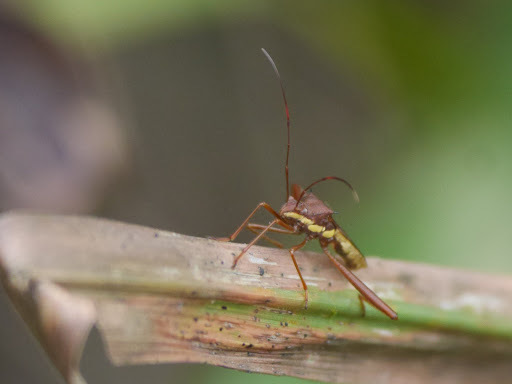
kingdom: Animalia
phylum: Arthropoda
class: Insecta
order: Hemiptera
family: Alydidae
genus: Riptortus
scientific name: Riptortus dentipes
